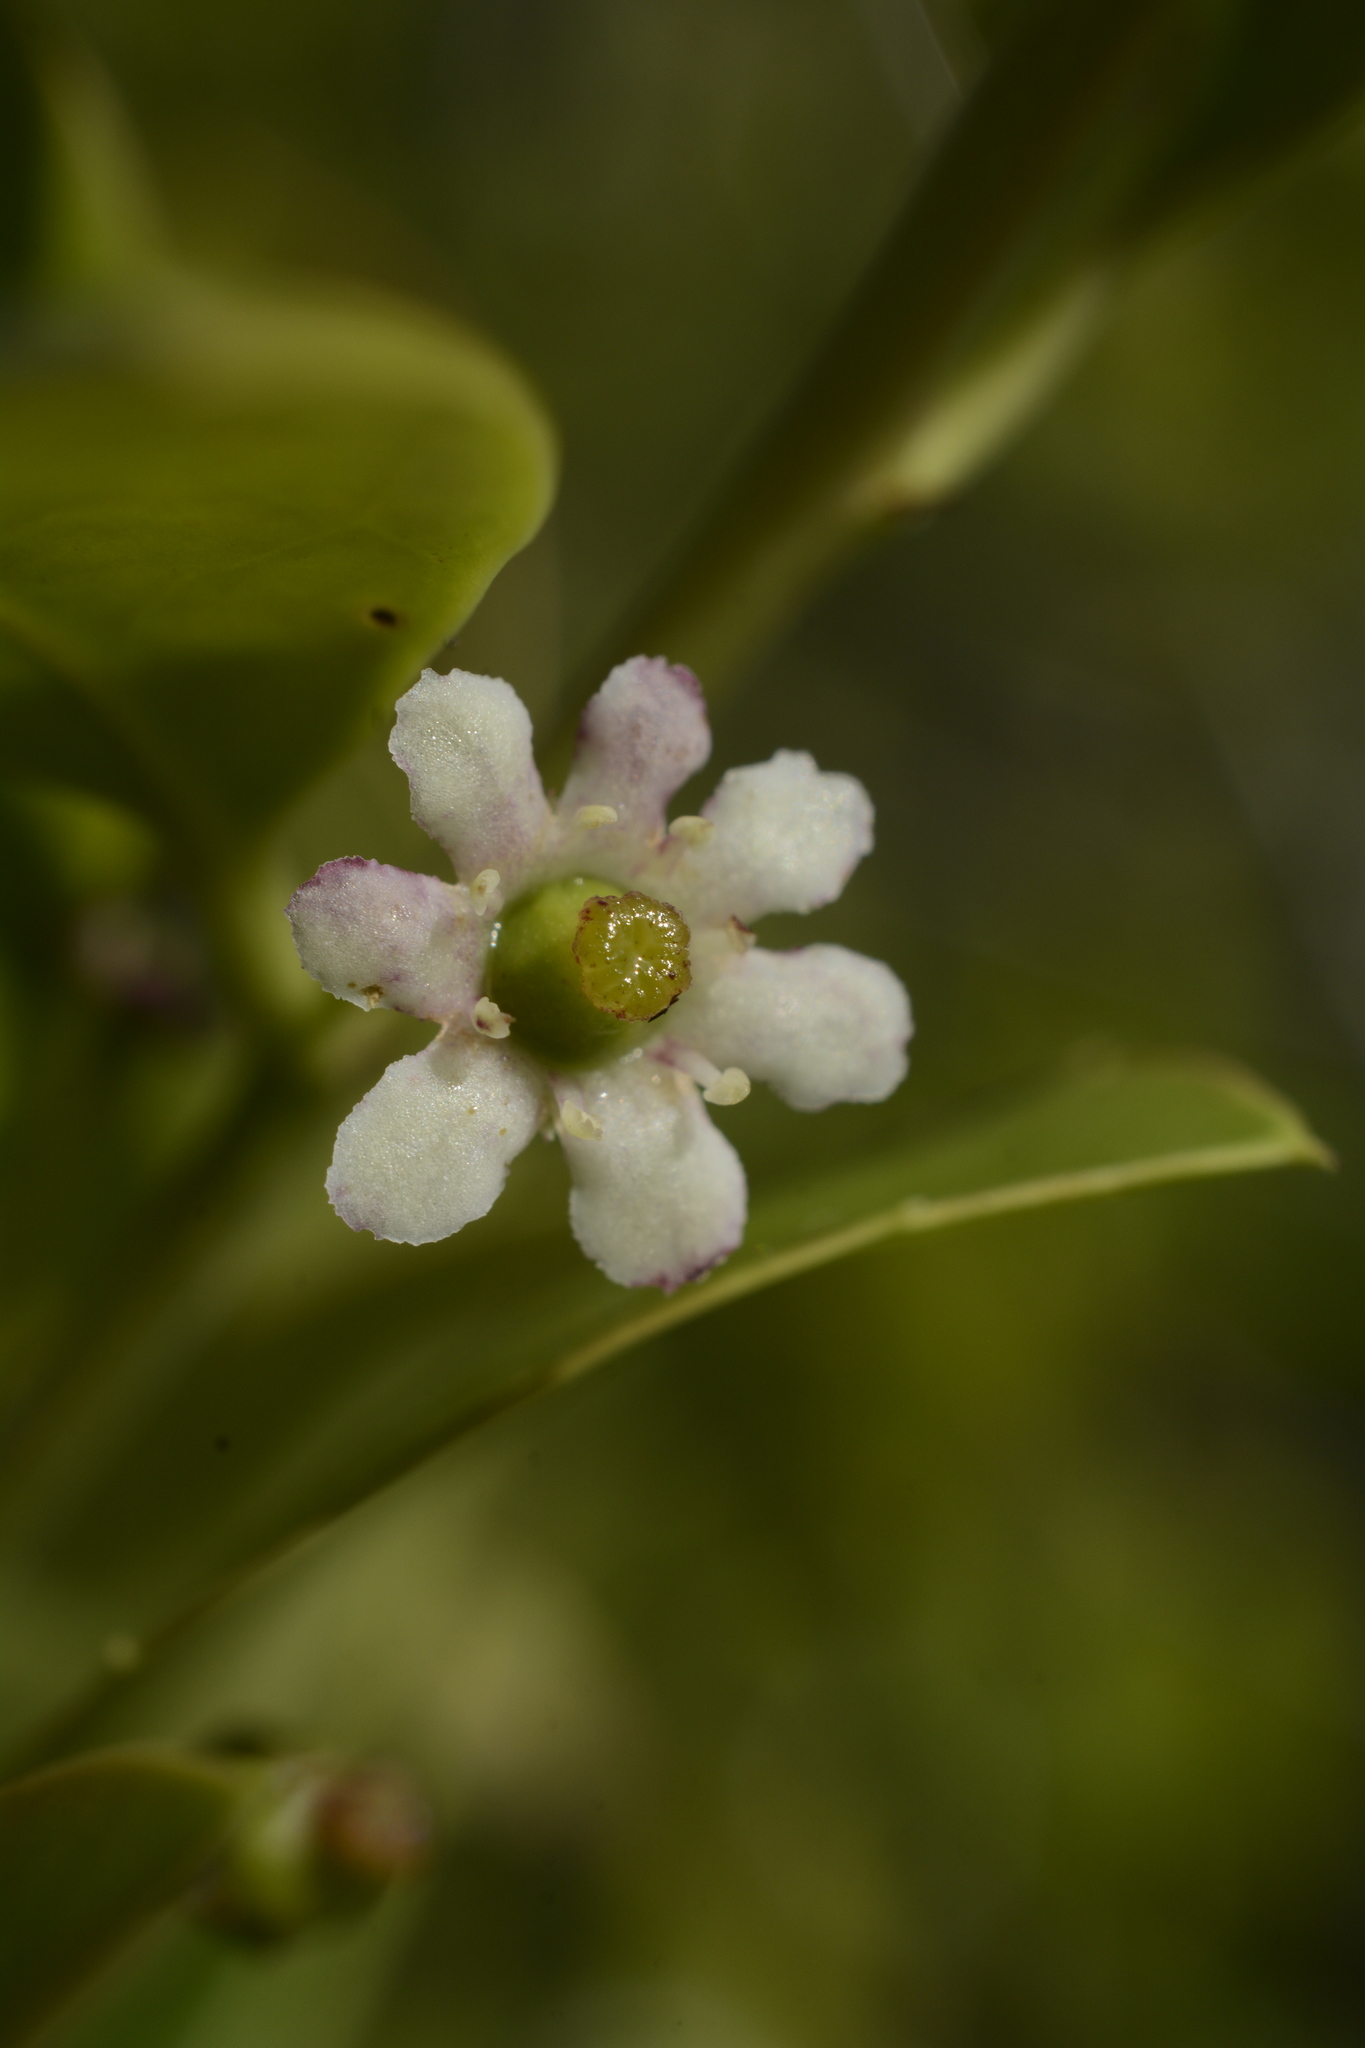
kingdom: Plantae
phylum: Tracheophyta
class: Magnoliopsida
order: Aquifoliales
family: Aquifoliaceae
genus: Ilex
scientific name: Ilex glabra
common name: Bitter gallberry
